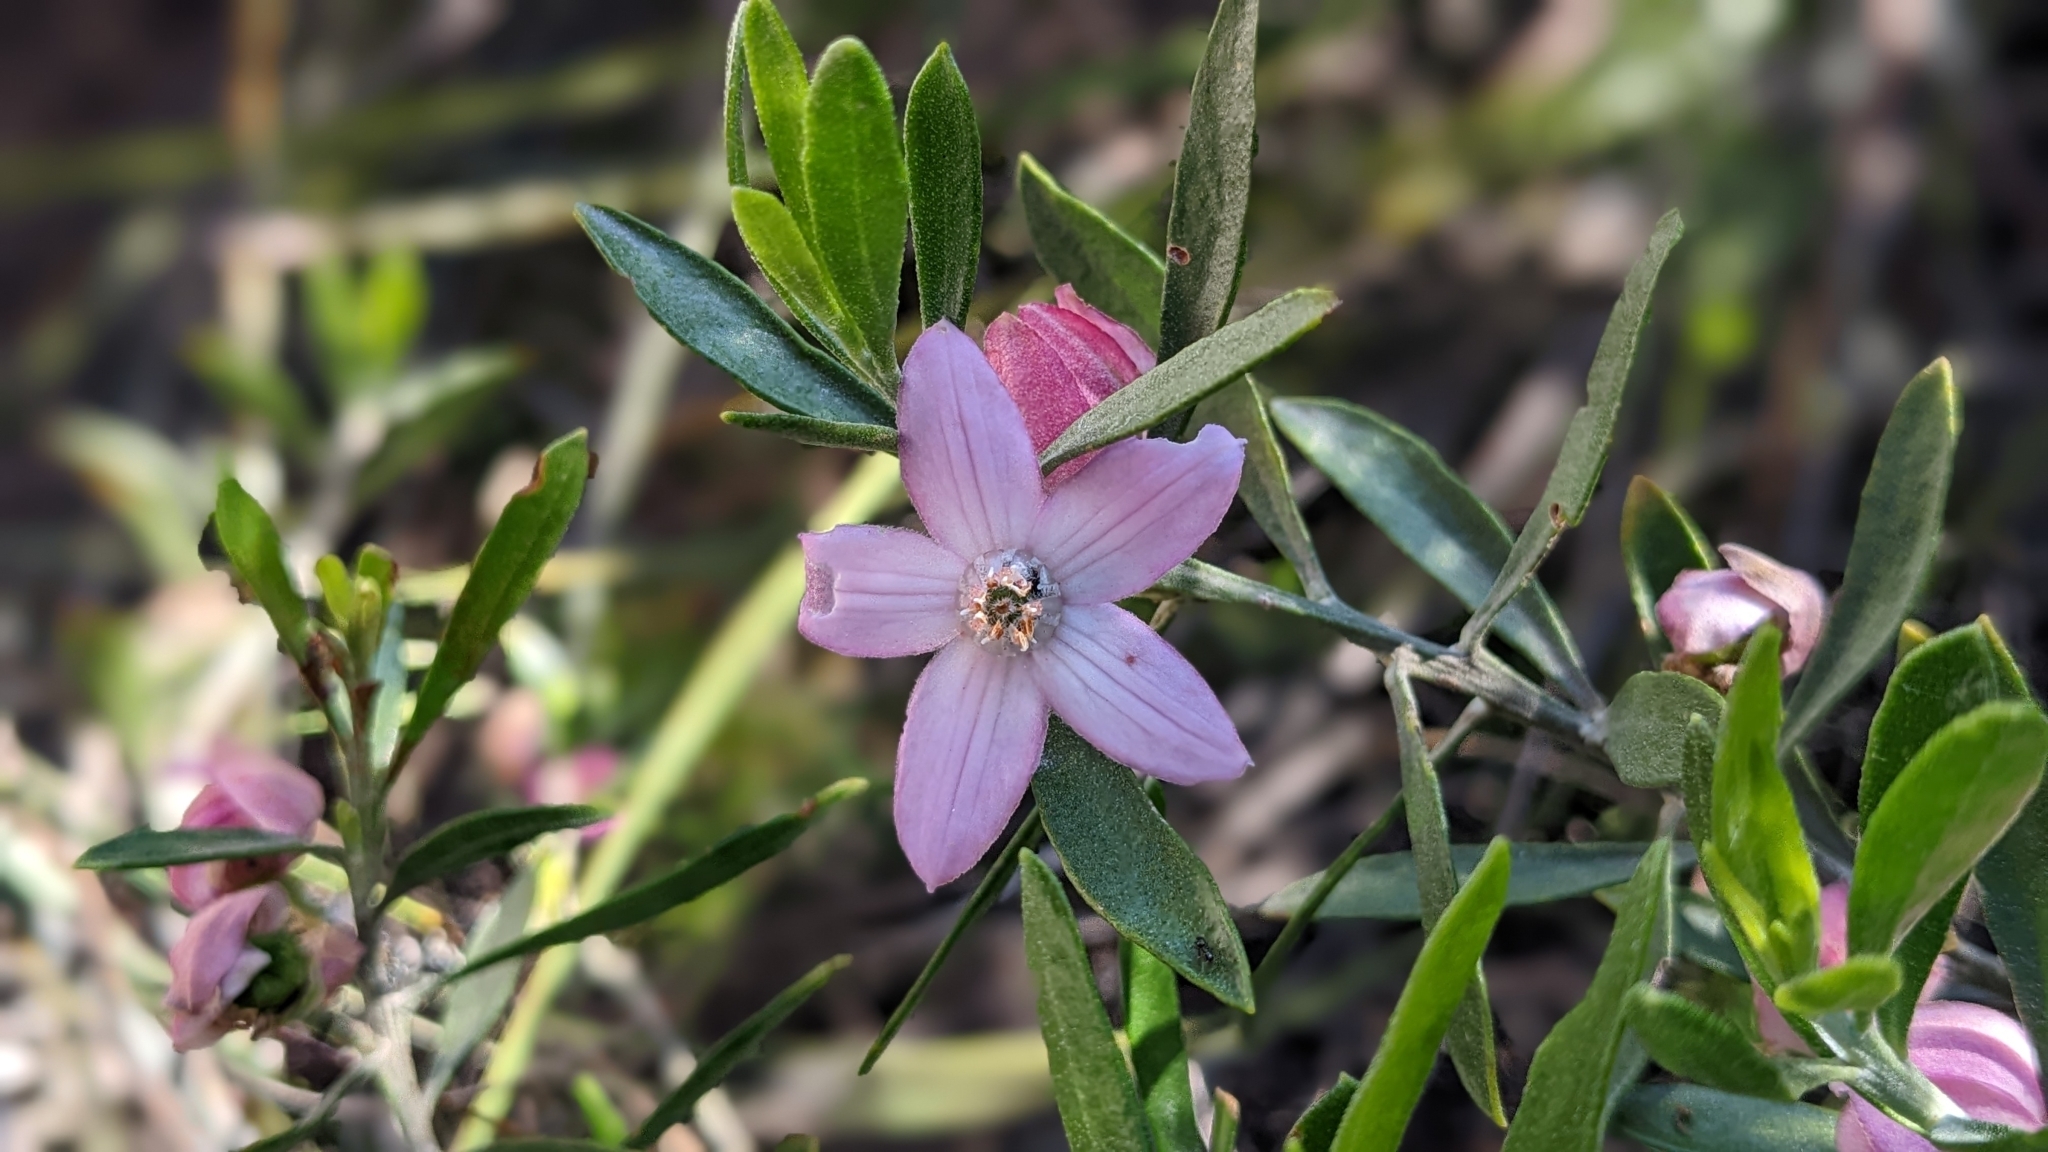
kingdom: Plantae
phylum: Tracheophyta
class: Magnoliopsida
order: Sapindales
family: Rutaceae
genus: Eriostemon
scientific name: Eriostemon australasius
